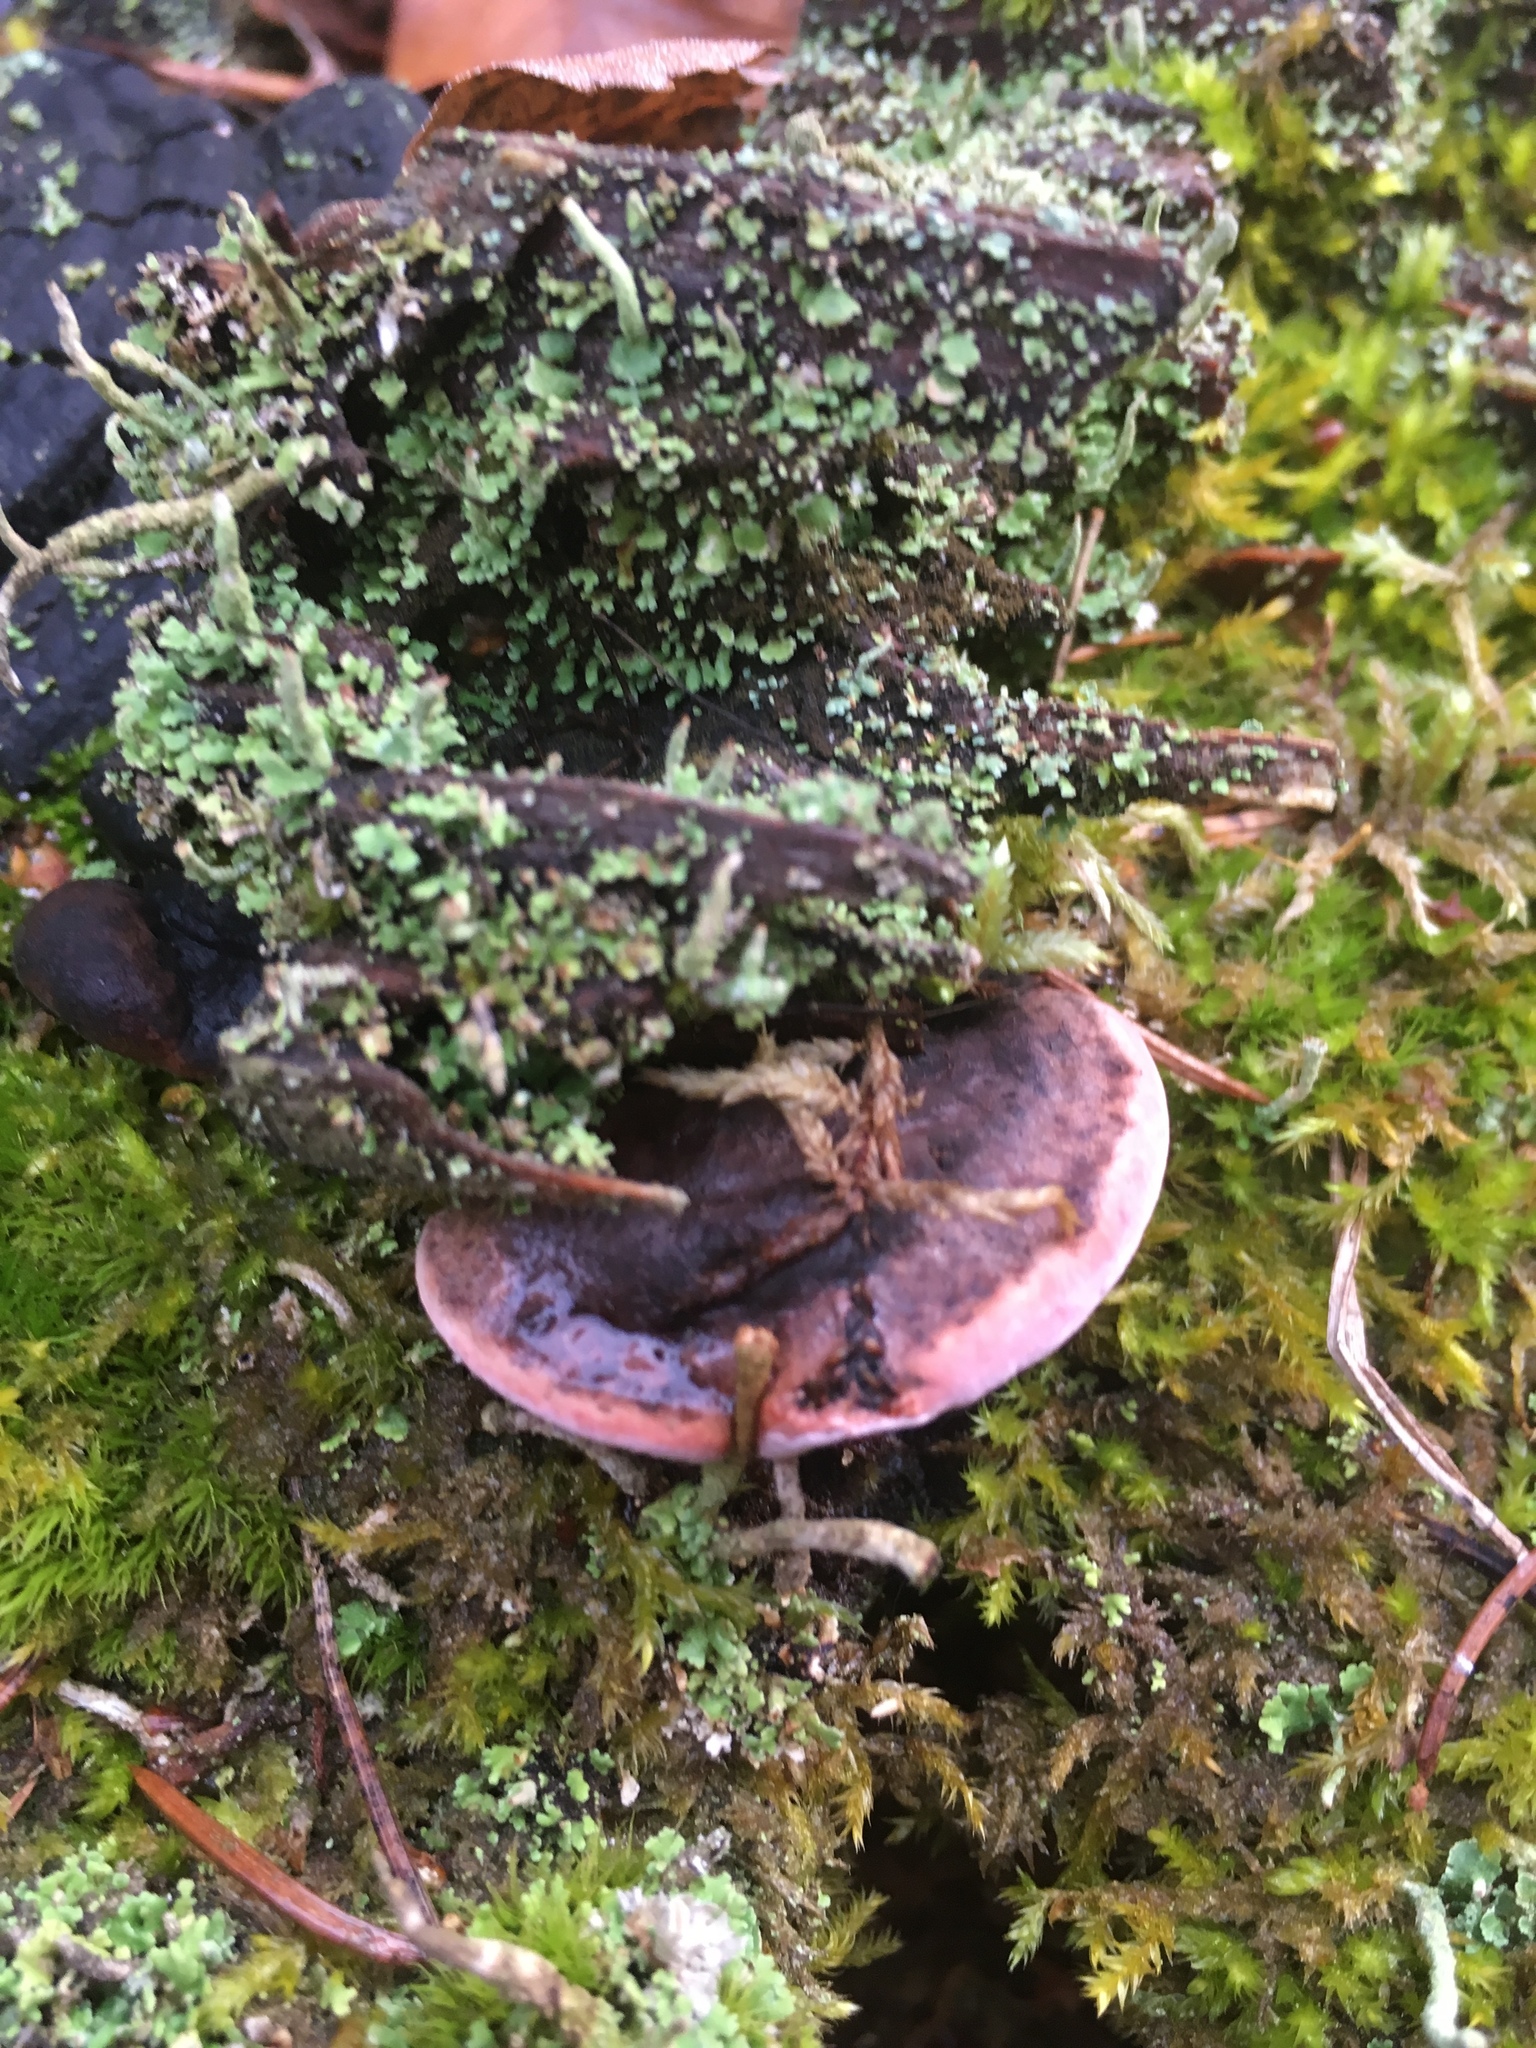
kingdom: Fungi
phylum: Basidiomycota
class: Agaricomycetes
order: Polyporales
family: Fomitopsidaceae
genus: Rhodofomes
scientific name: Rhodofomes roseus
